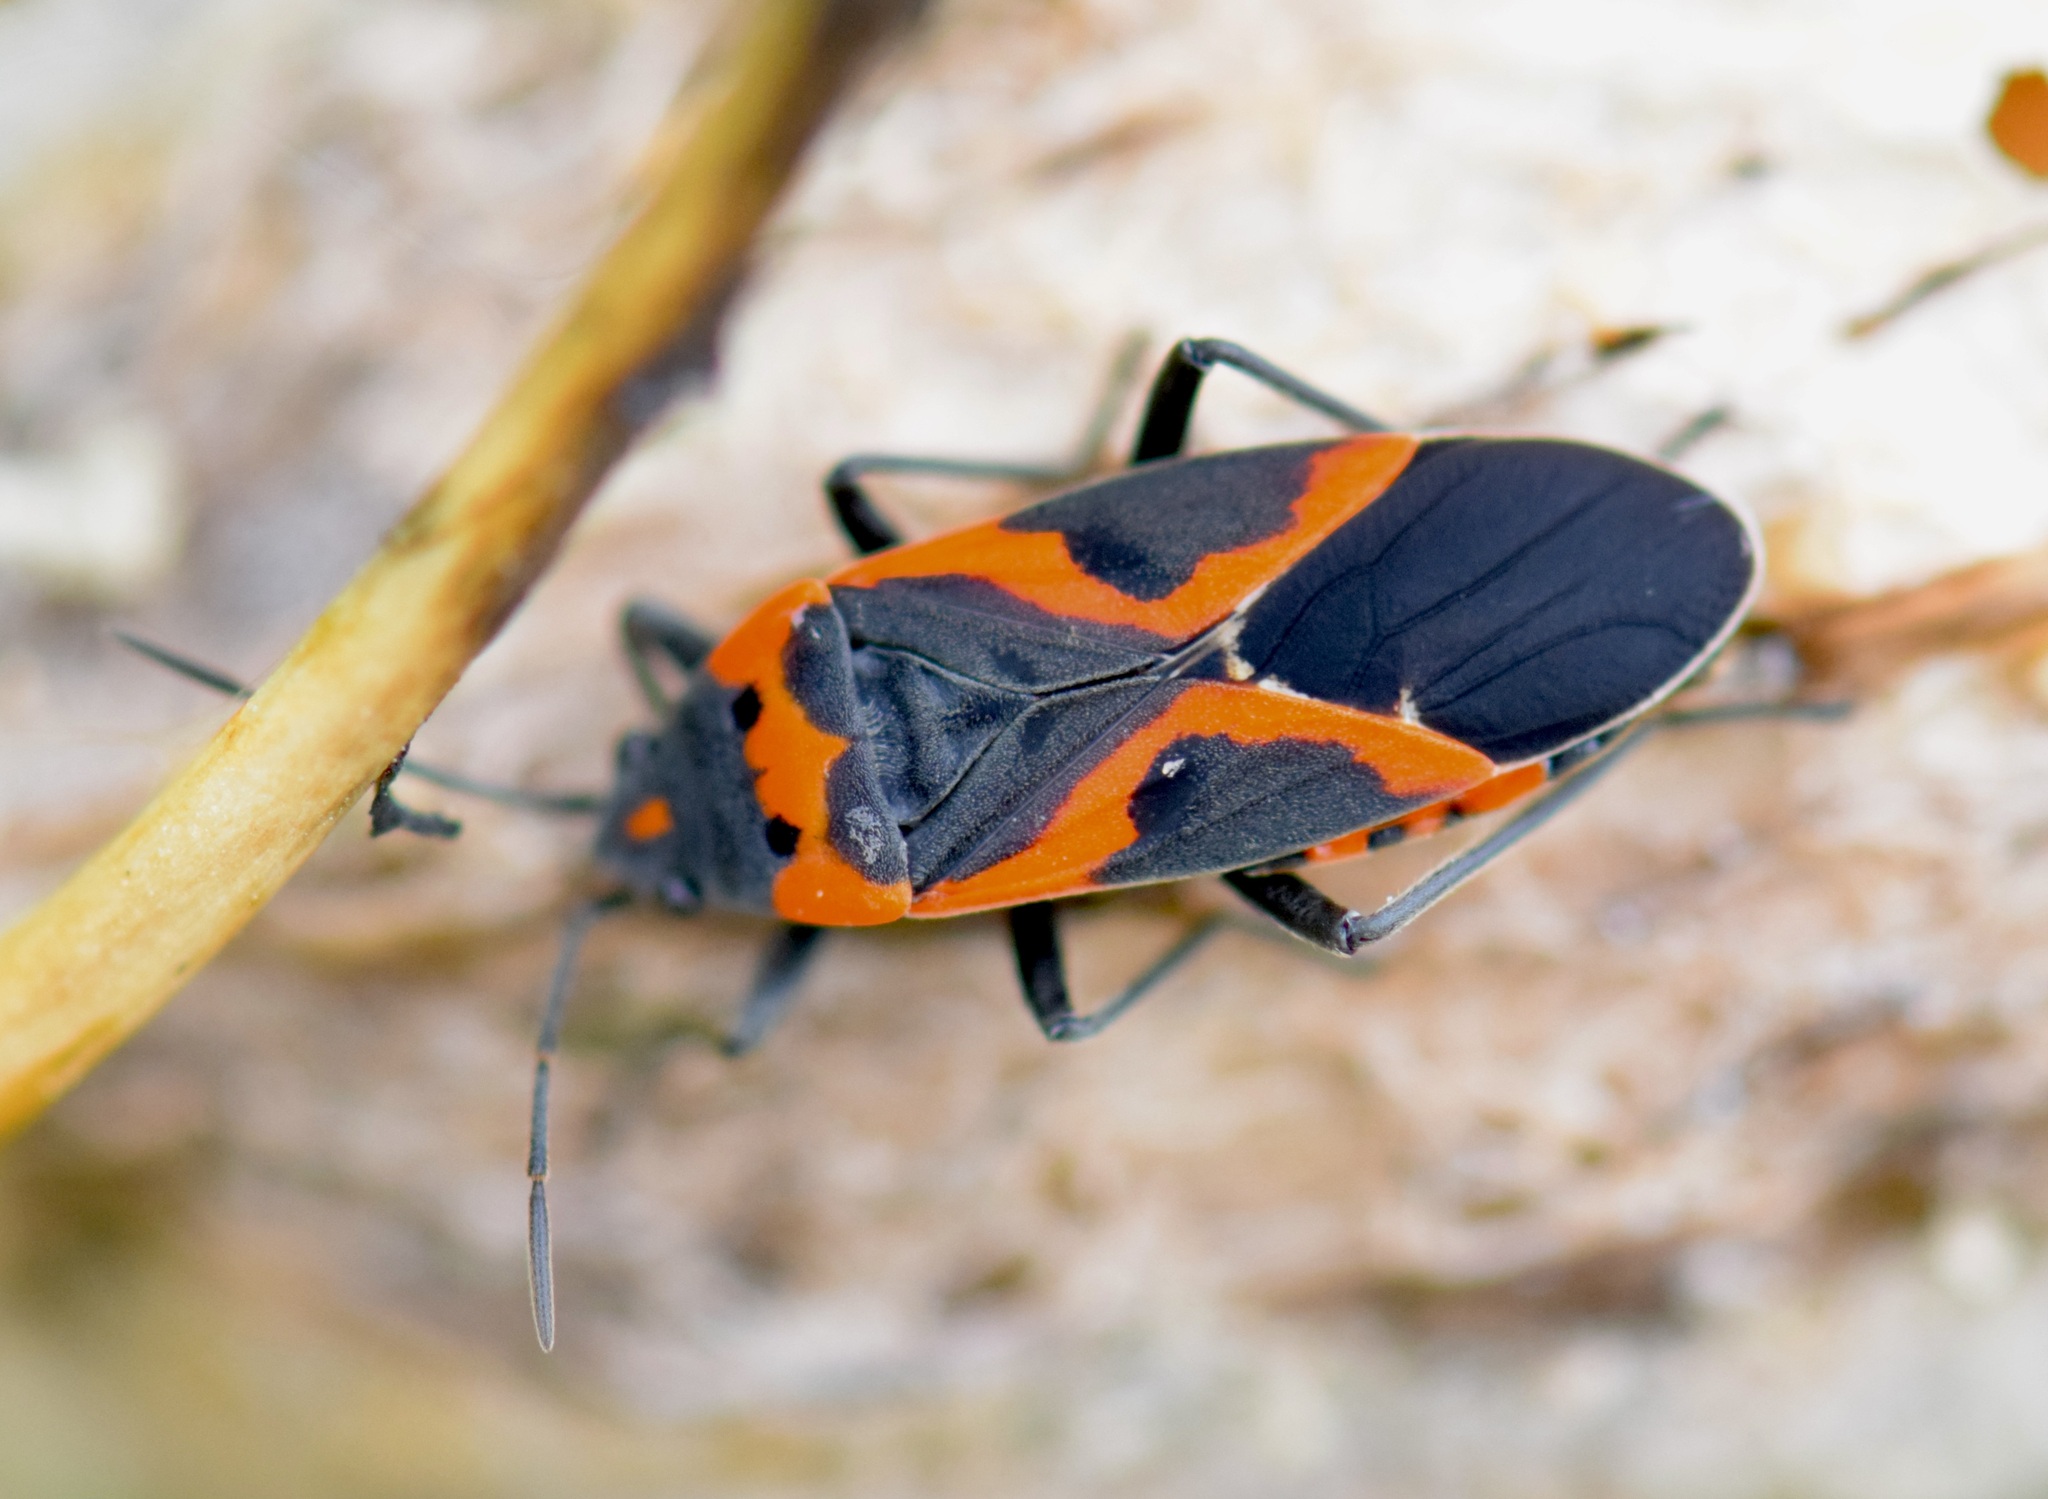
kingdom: Animalia
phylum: Arthropoda
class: Insecta
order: Hemiptera
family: Lygaeidae
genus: Lygaeus
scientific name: Lygaeus kalmii
